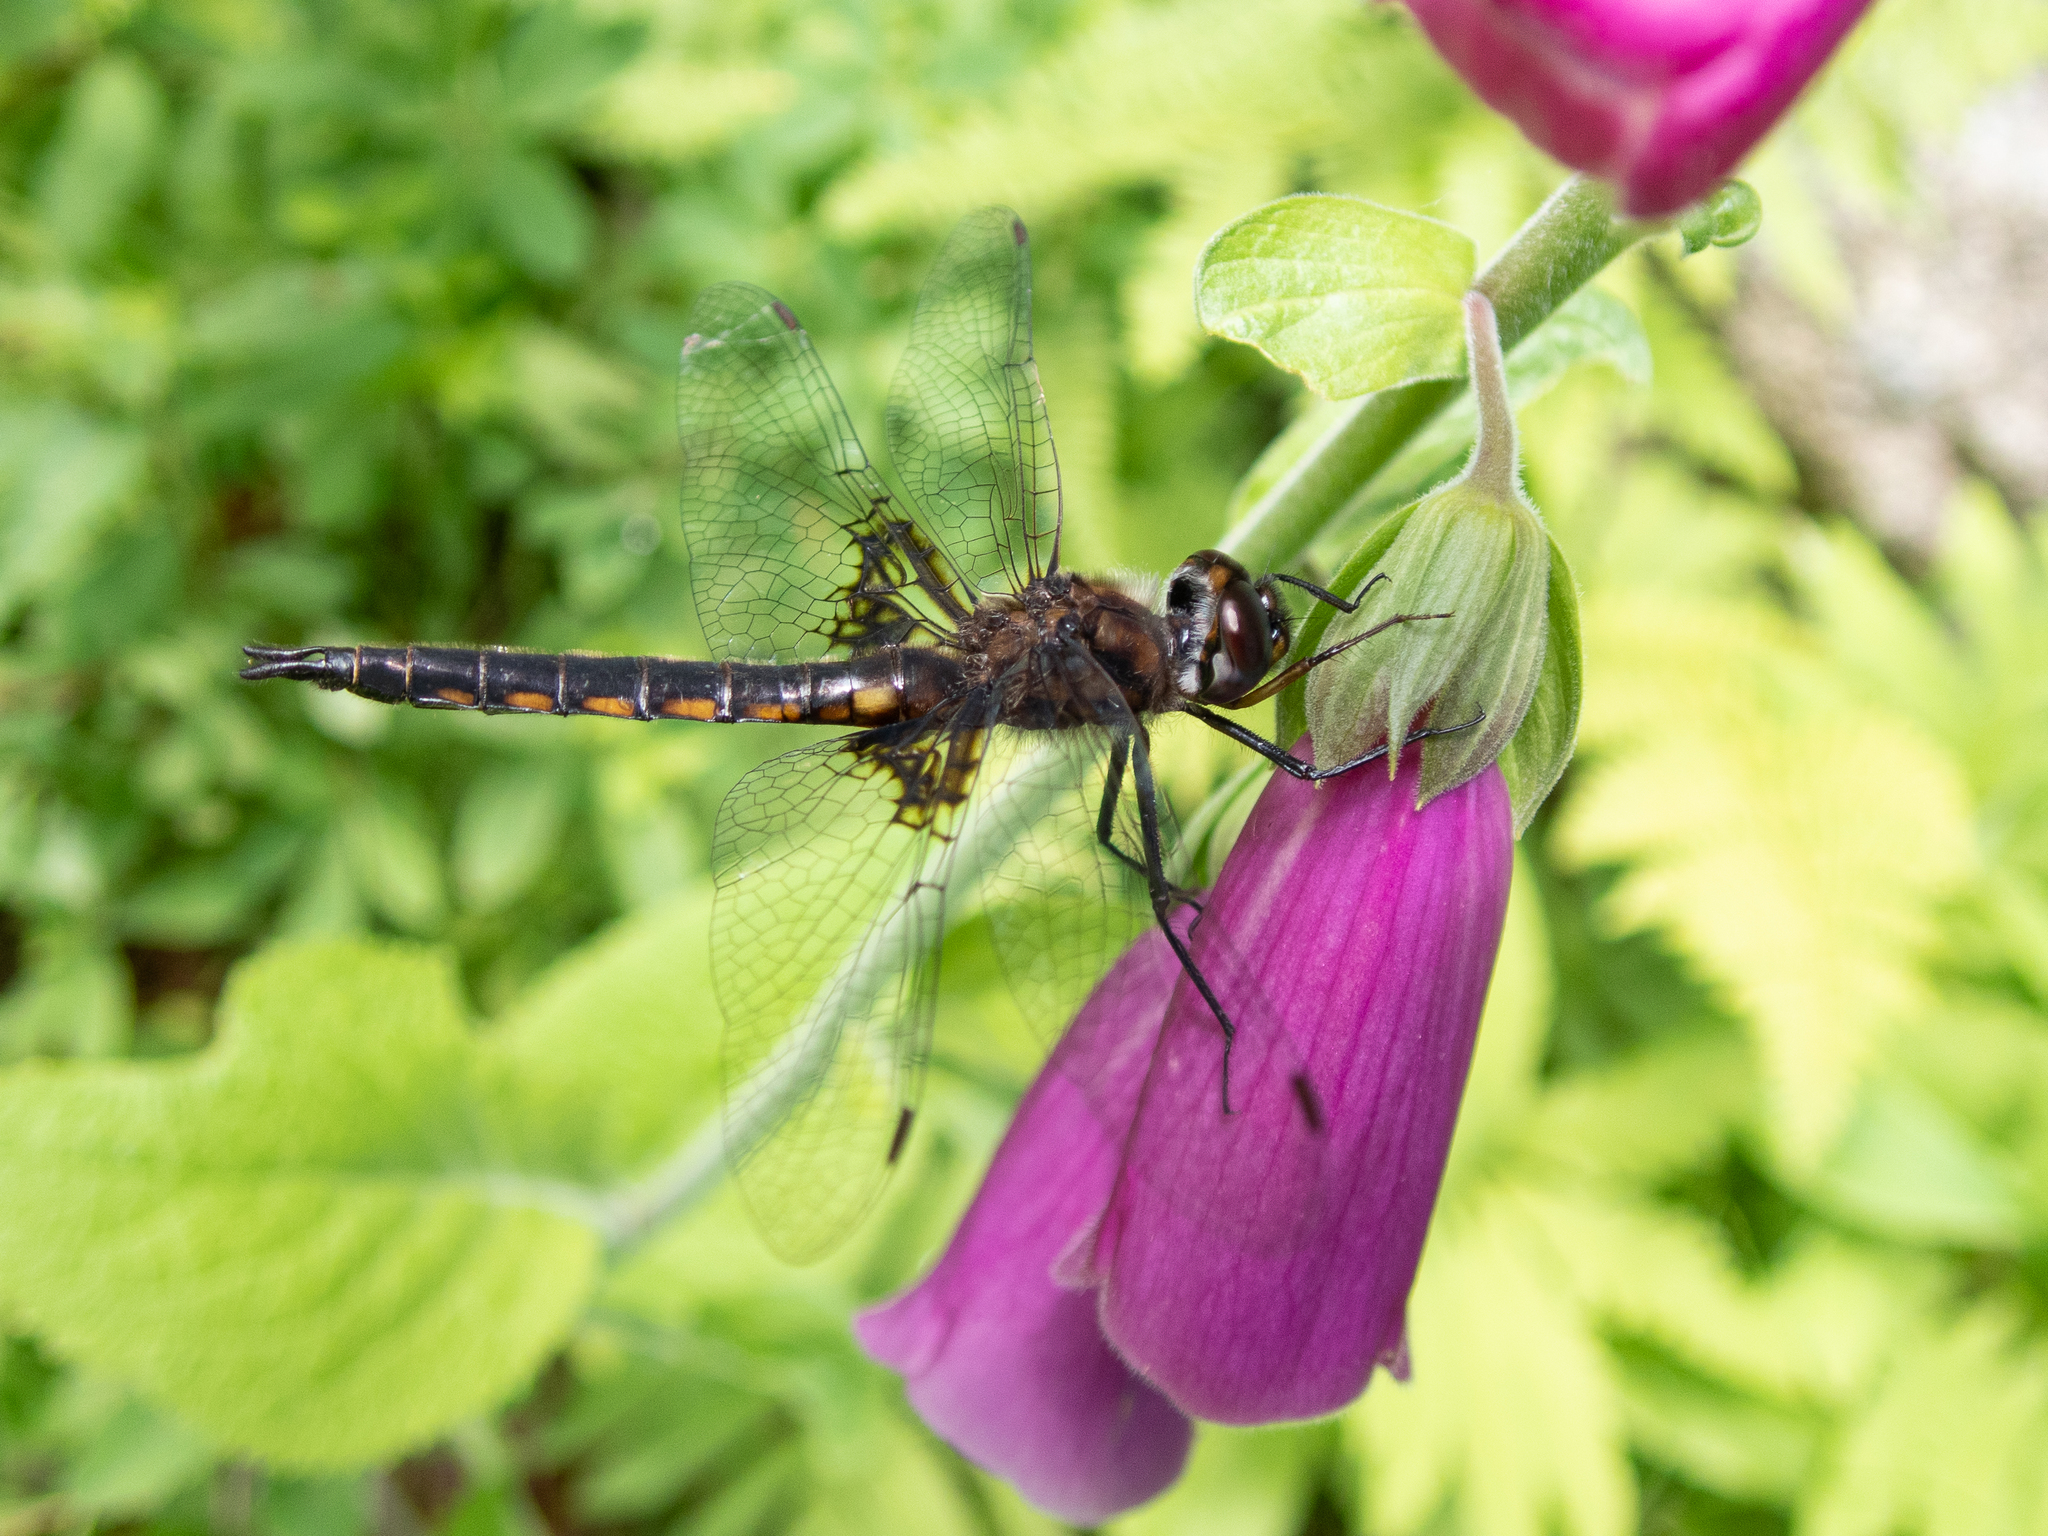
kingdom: Animalia
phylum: Arthropoda
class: Insecta
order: Odonata
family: Corduliidae
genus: Epitheca
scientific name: Epitheca cynosura
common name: Common baskettail
